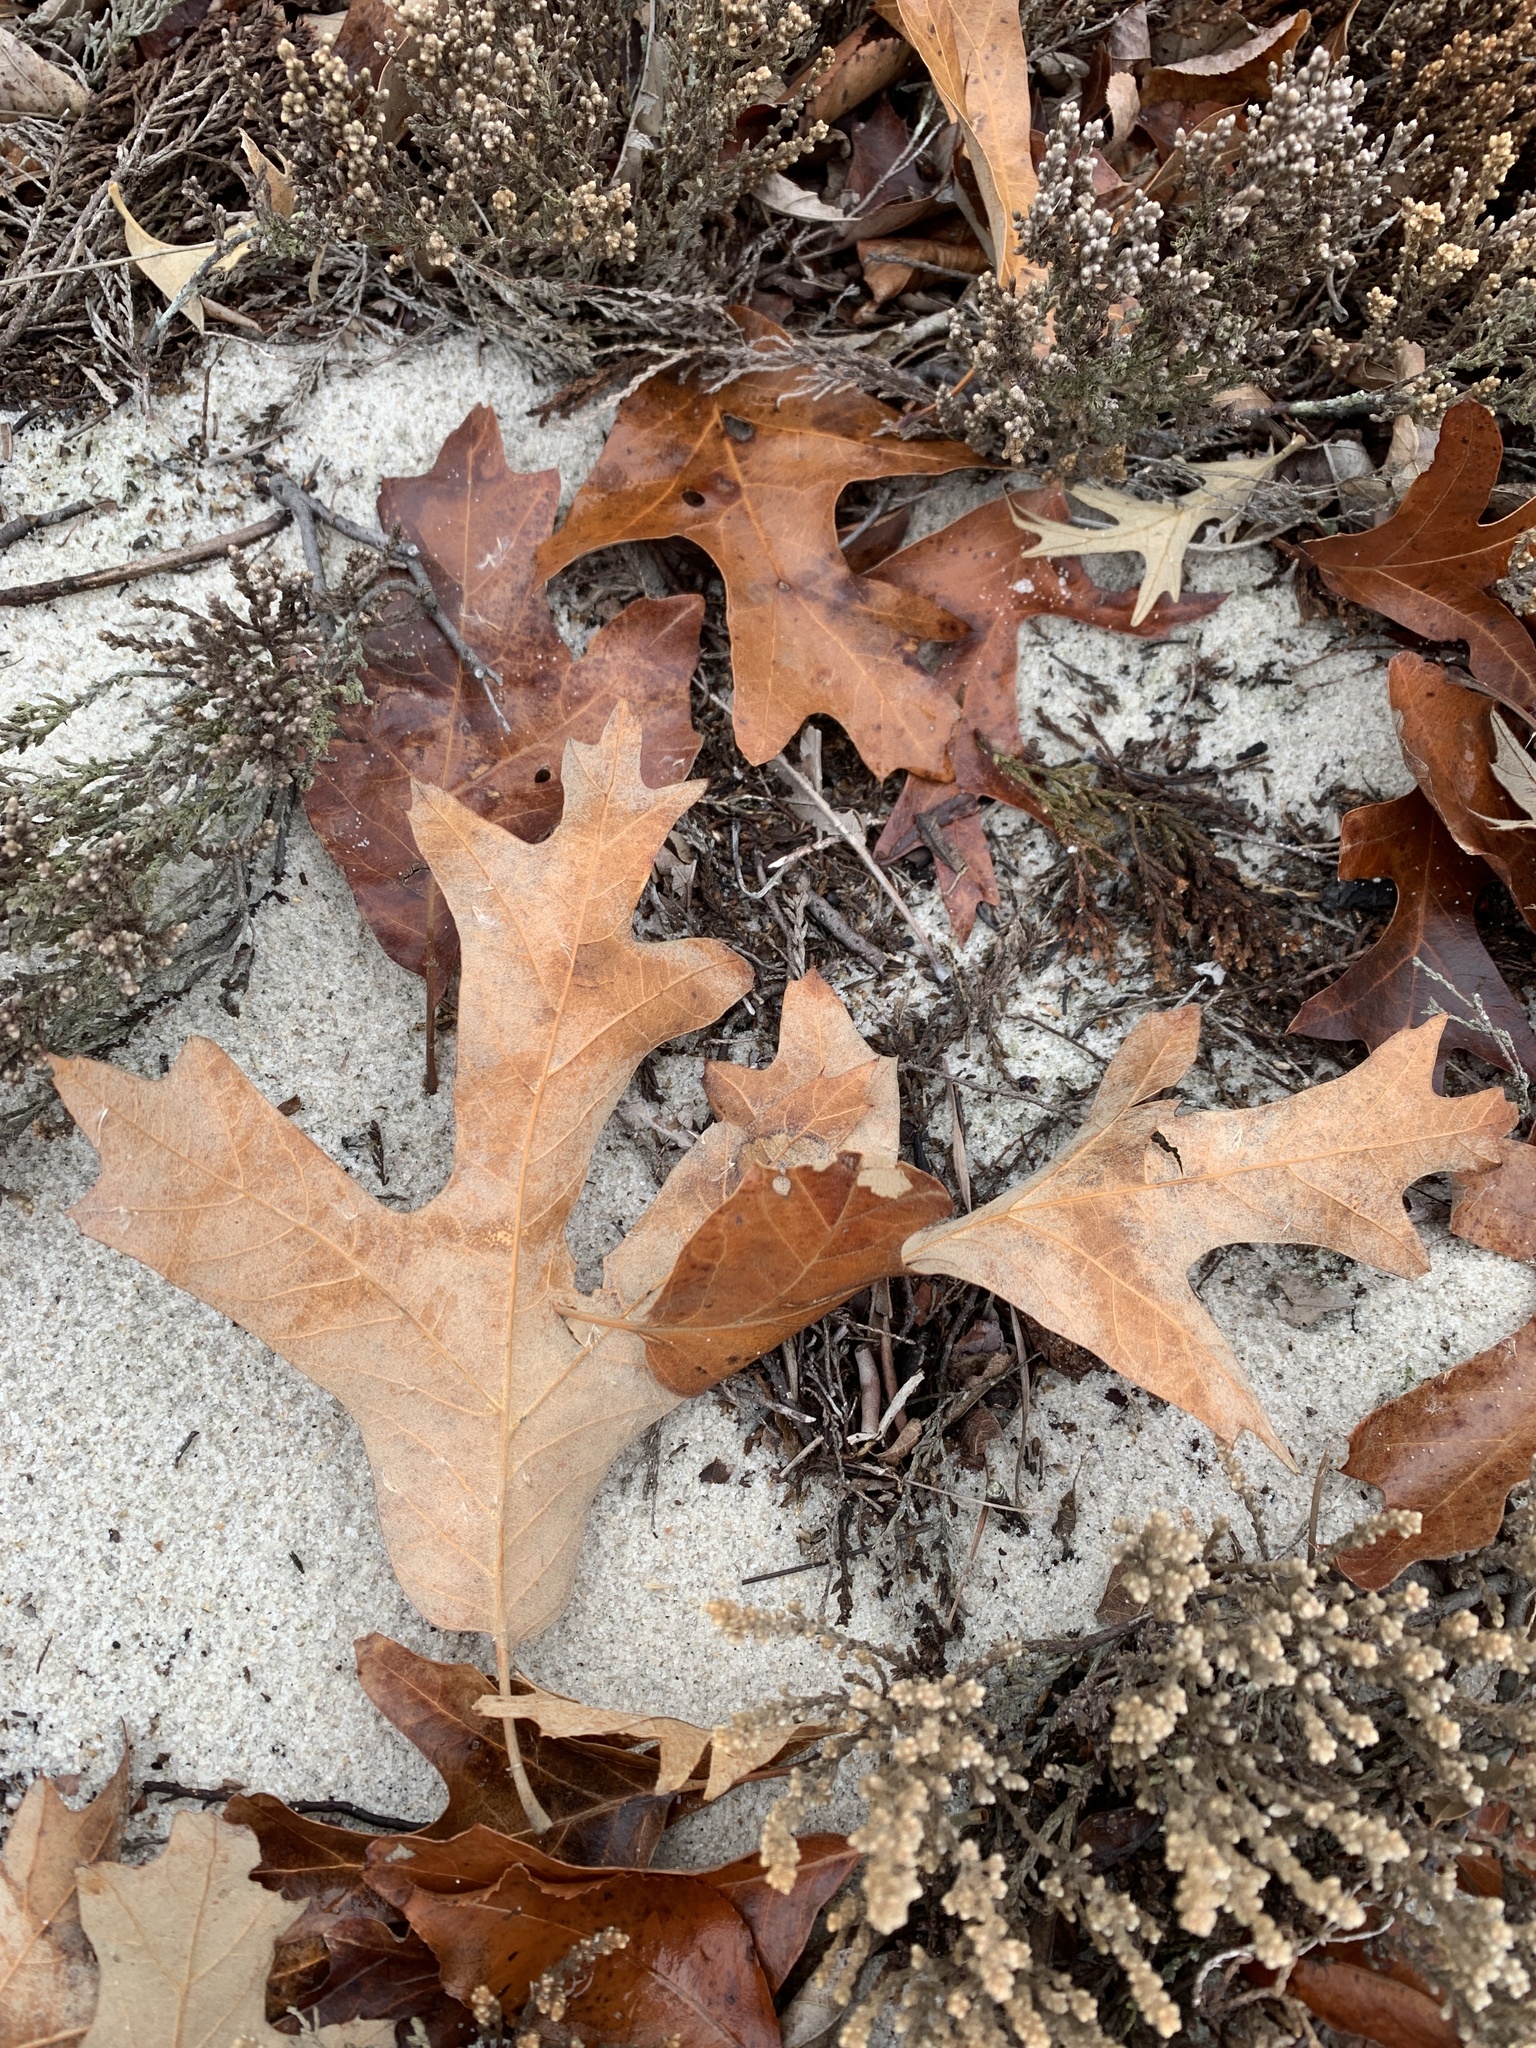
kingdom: Plantae
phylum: Tracheophyta
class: Magnoliopsida
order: Fagales
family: Fagaceae
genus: Quercus
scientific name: Quercus falcata
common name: Southern red oak
